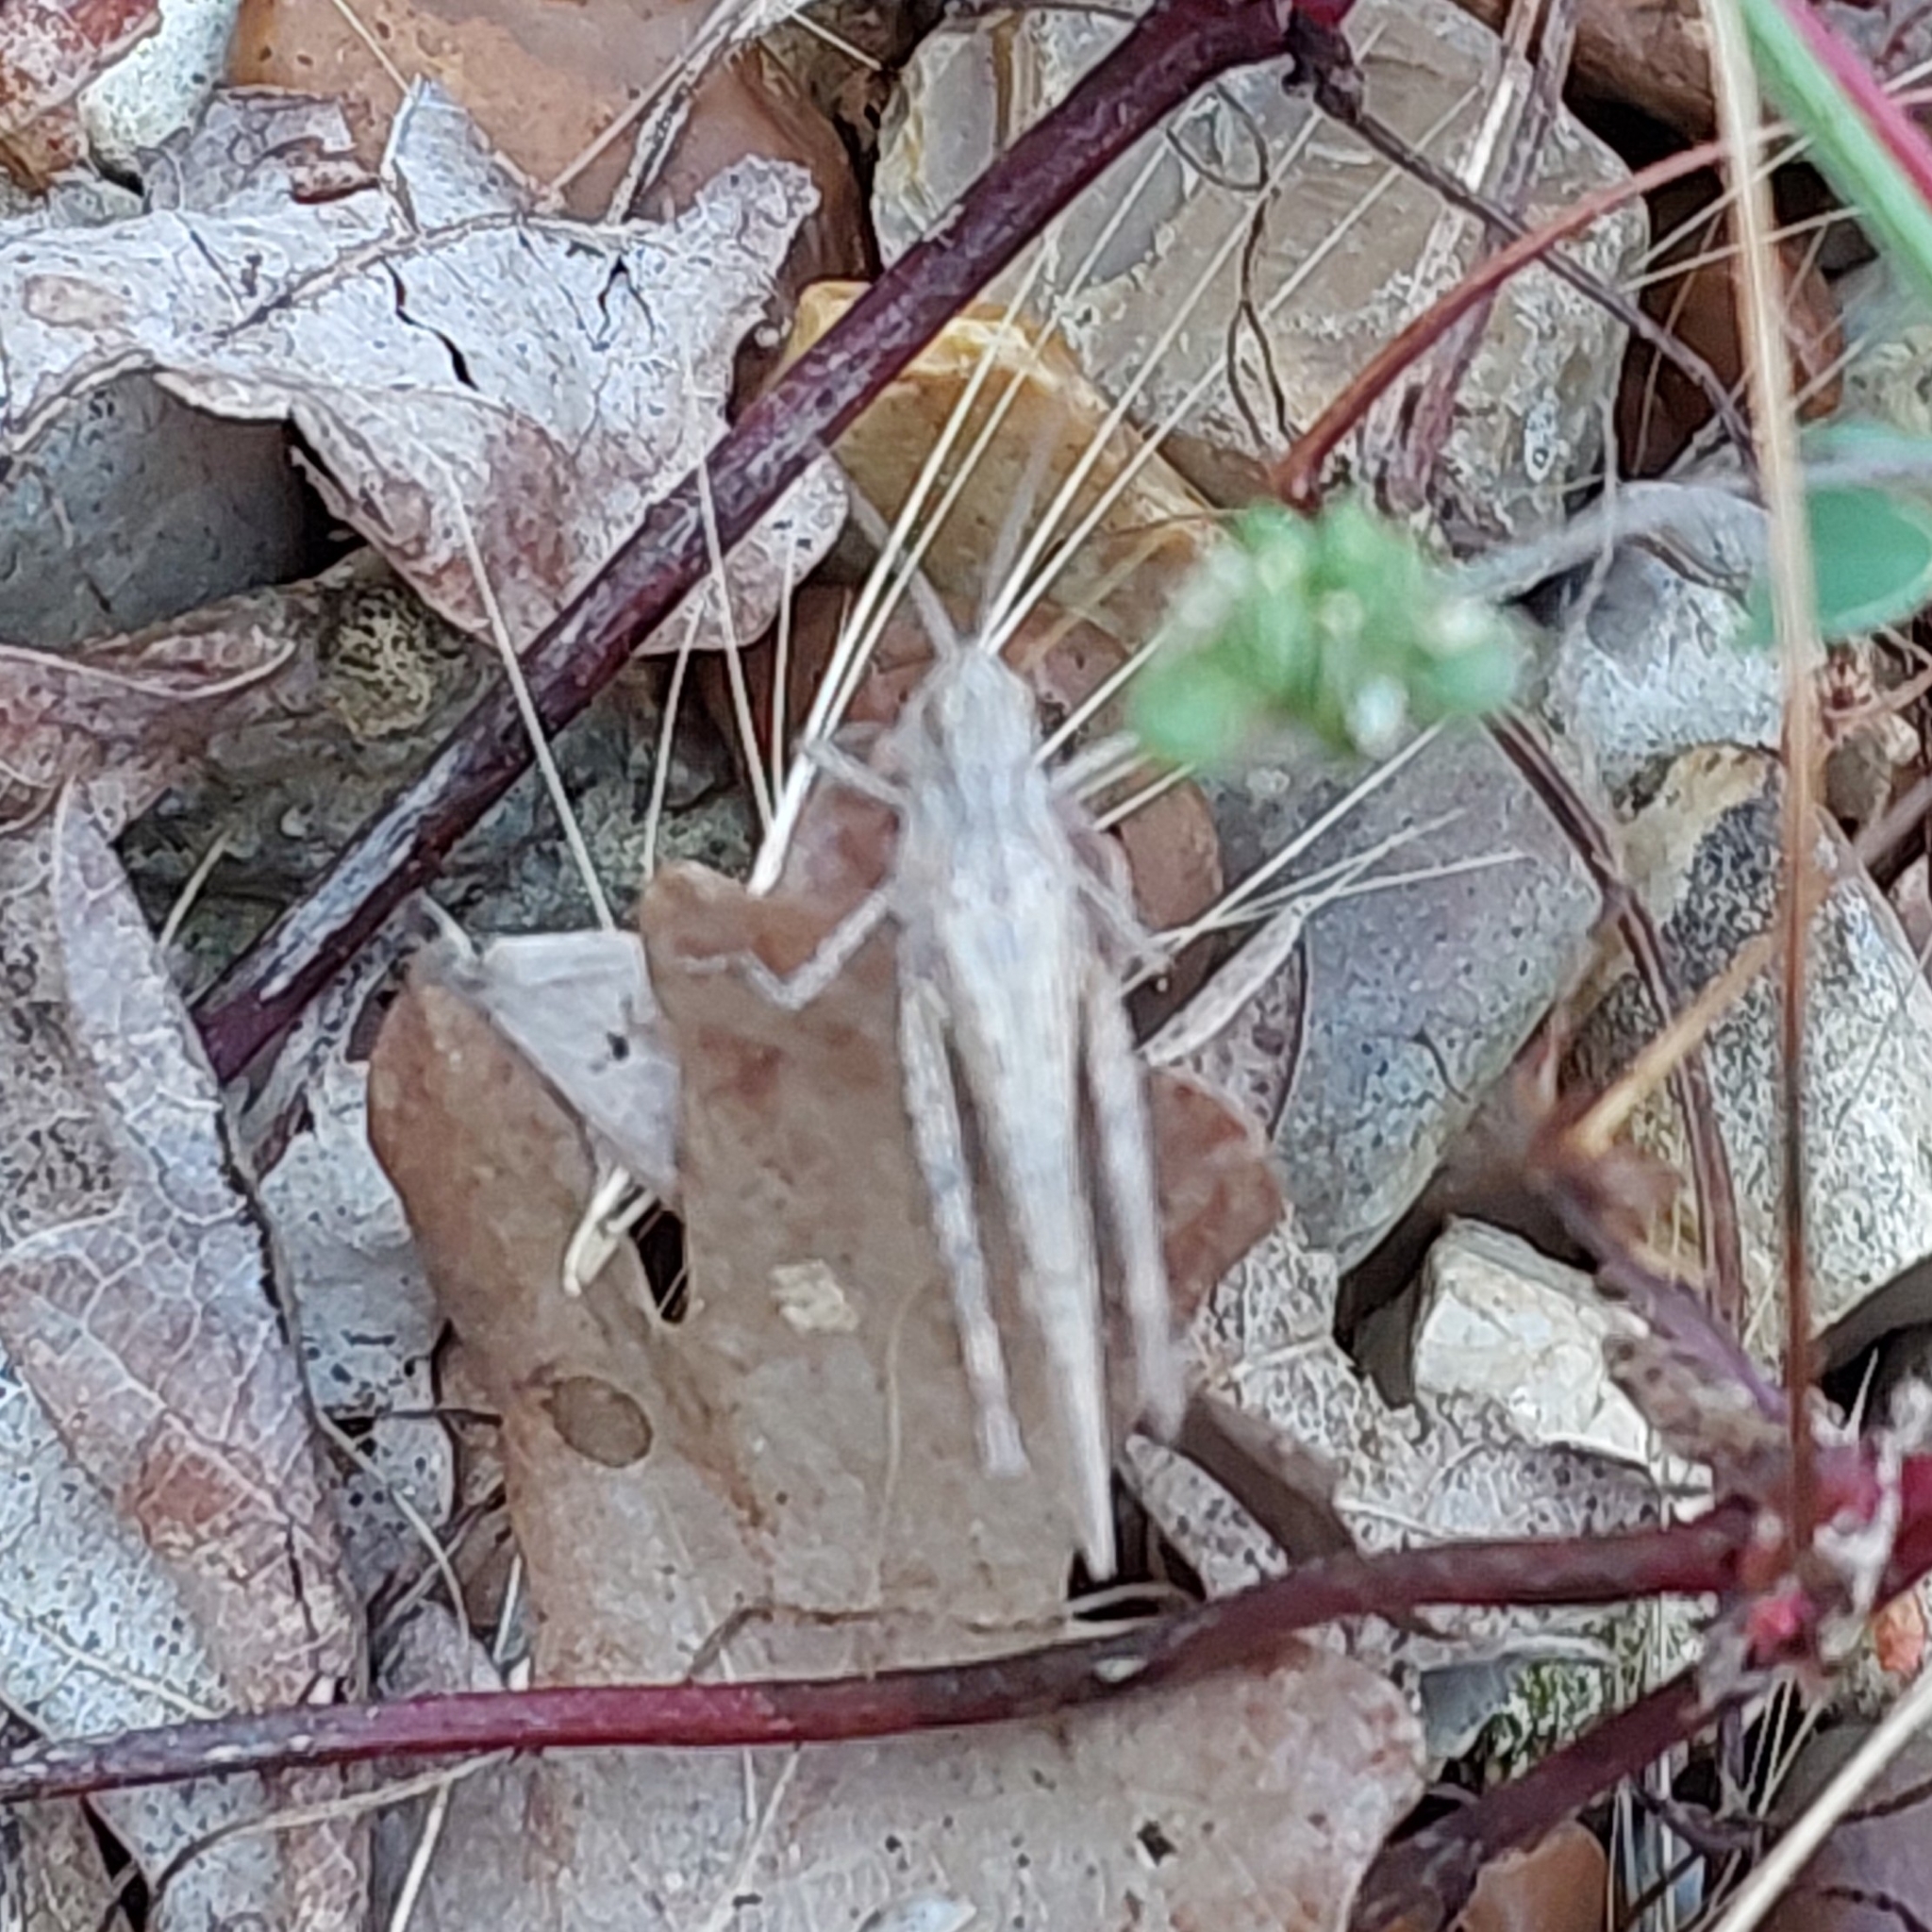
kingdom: Animalia
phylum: Arthropoda
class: Insecta
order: Orthoptera
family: Acrididae
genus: Chorthippus
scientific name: Chorthippus brunneus
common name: Field grasshopper
